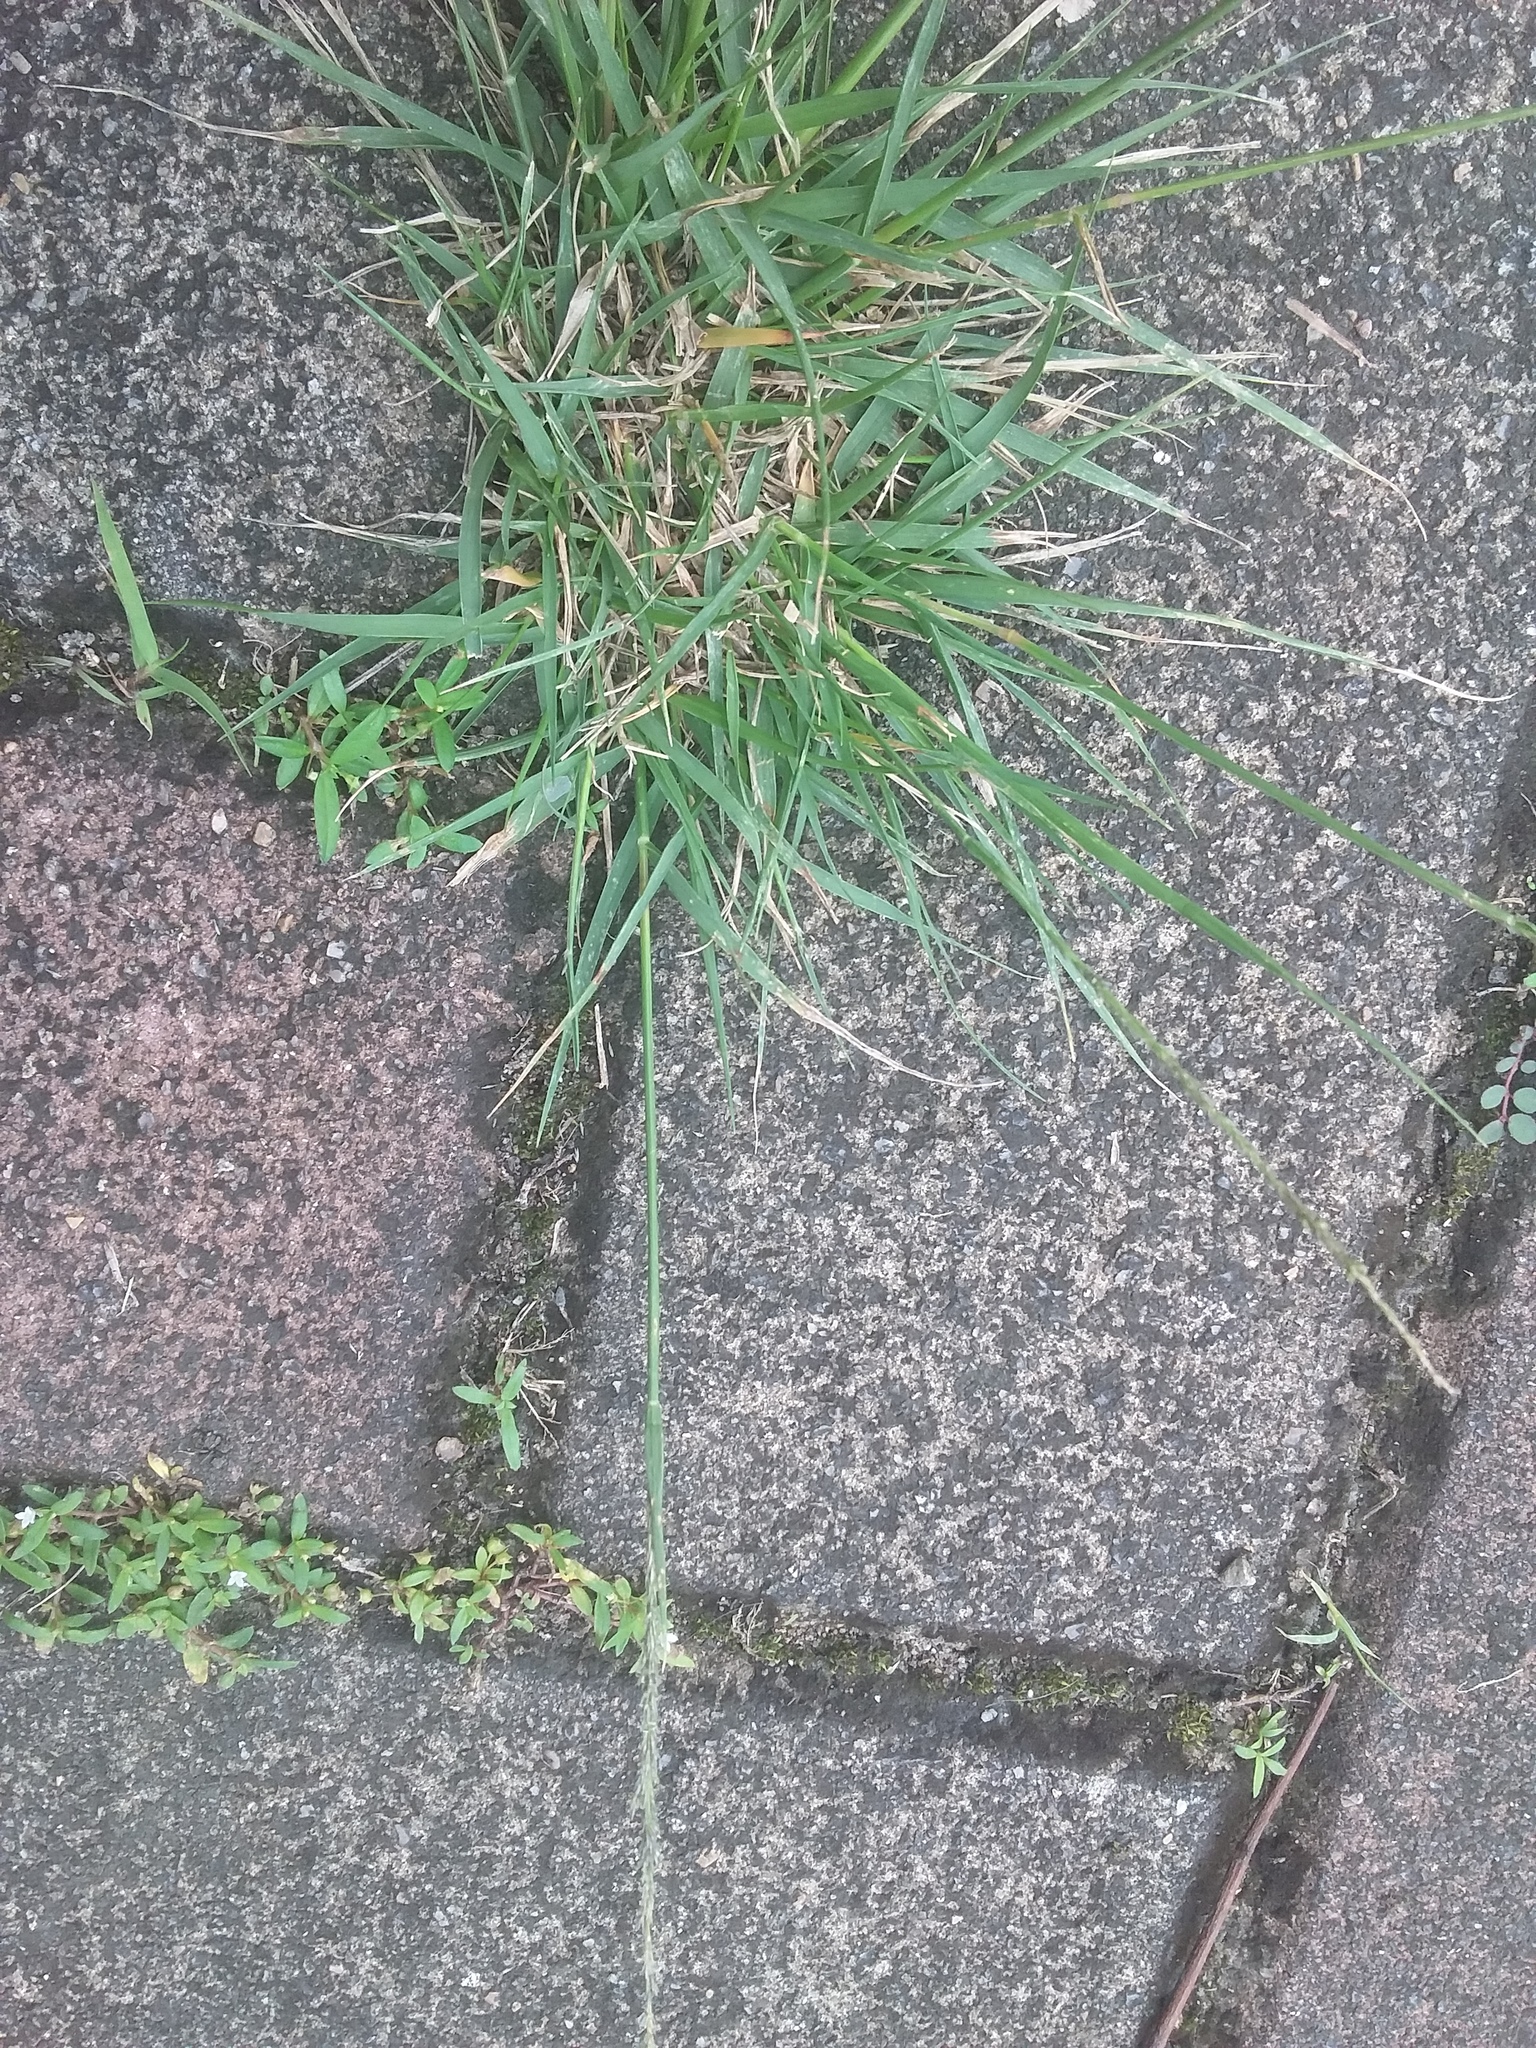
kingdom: Plantae
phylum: Tracheophyta
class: Liliopsida
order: Poales
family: Poaceae
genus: Sporobolus
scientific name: Sporobolus indicus
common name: Smut grass
